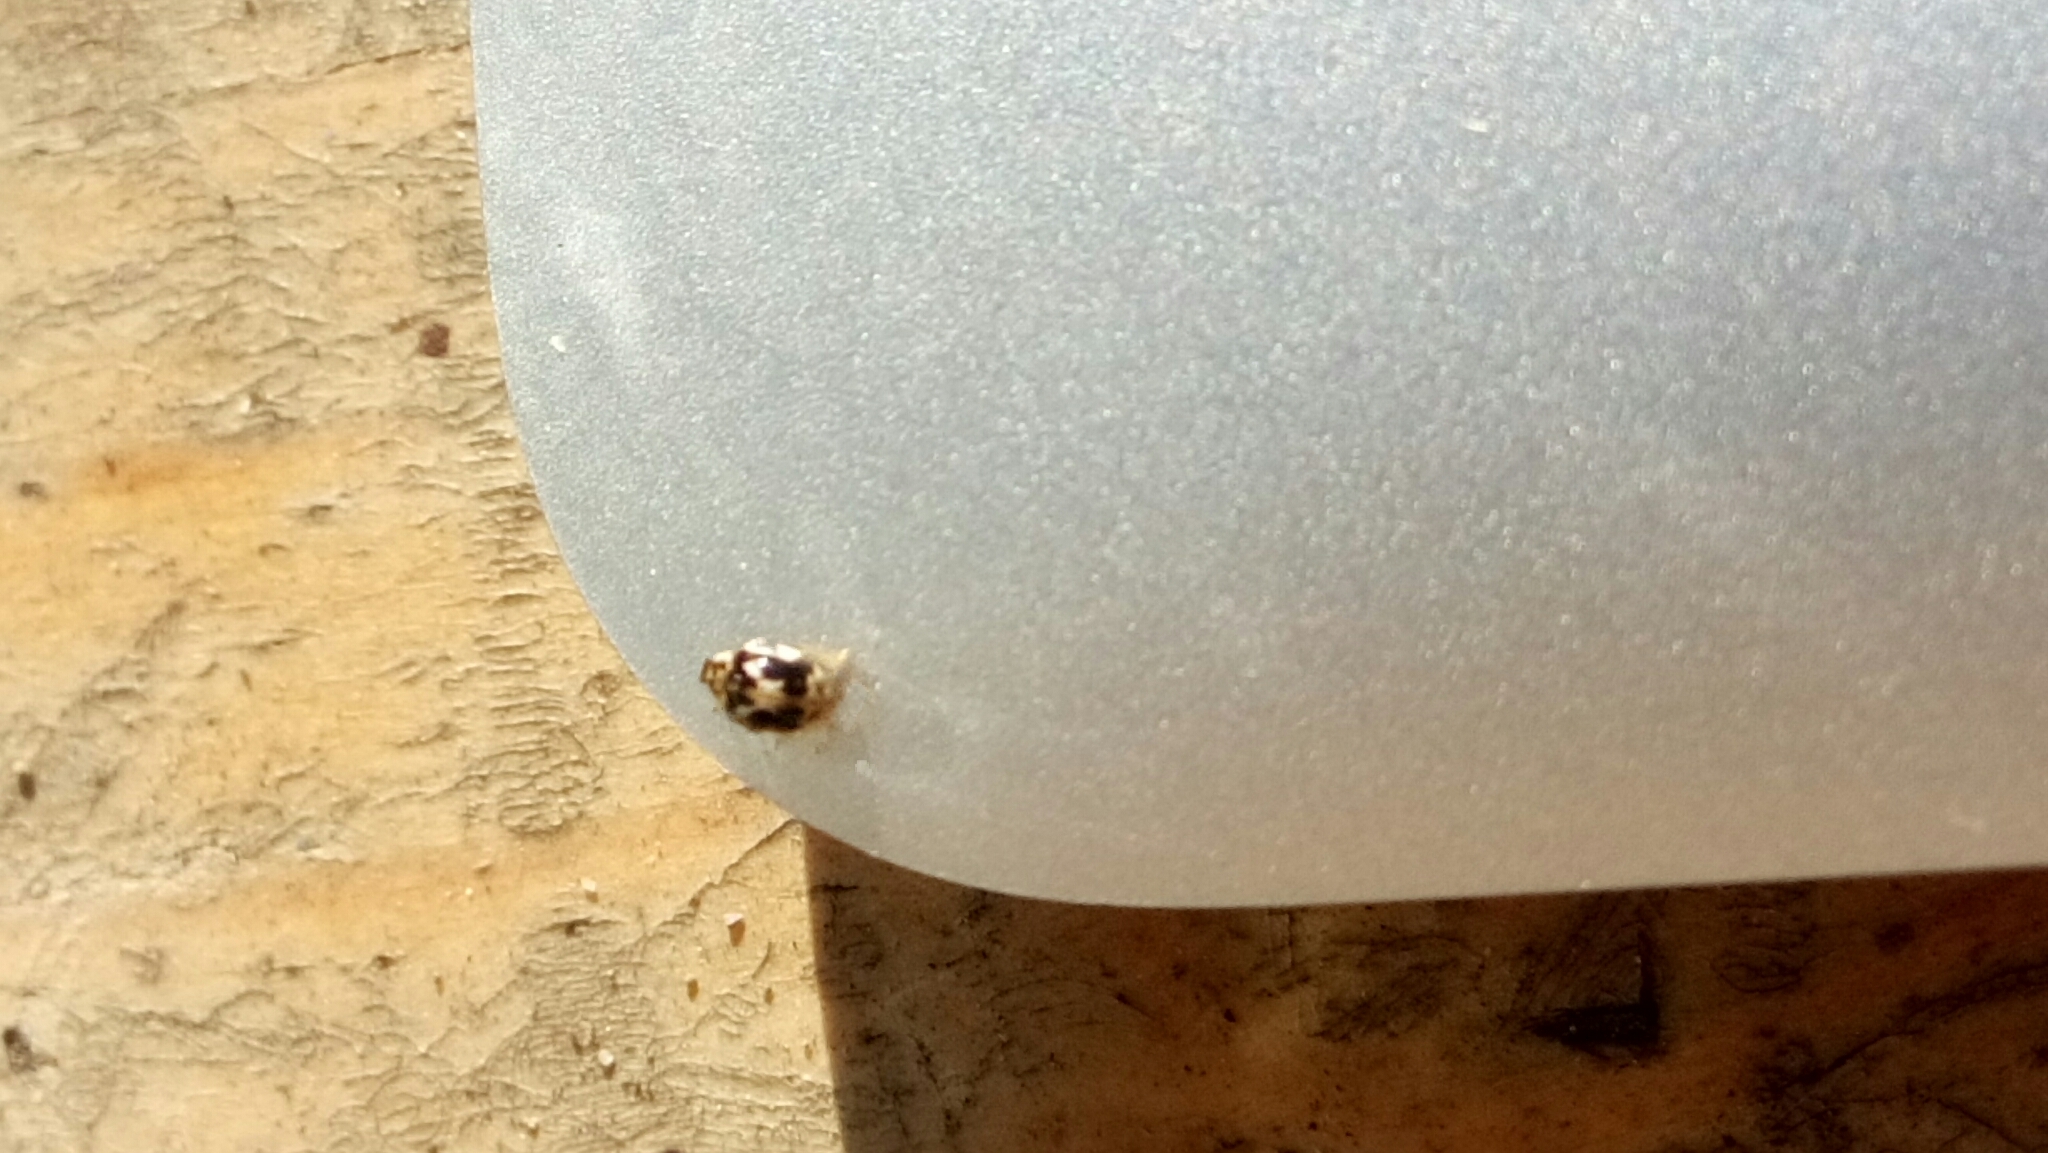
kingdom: Animalia
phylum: Arthropoda
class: Insecta
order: Coleoptera
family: Coccinellidae
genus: Psyllobora
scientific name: Psyllobora vigintimaculata
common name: Ladybird beetle
